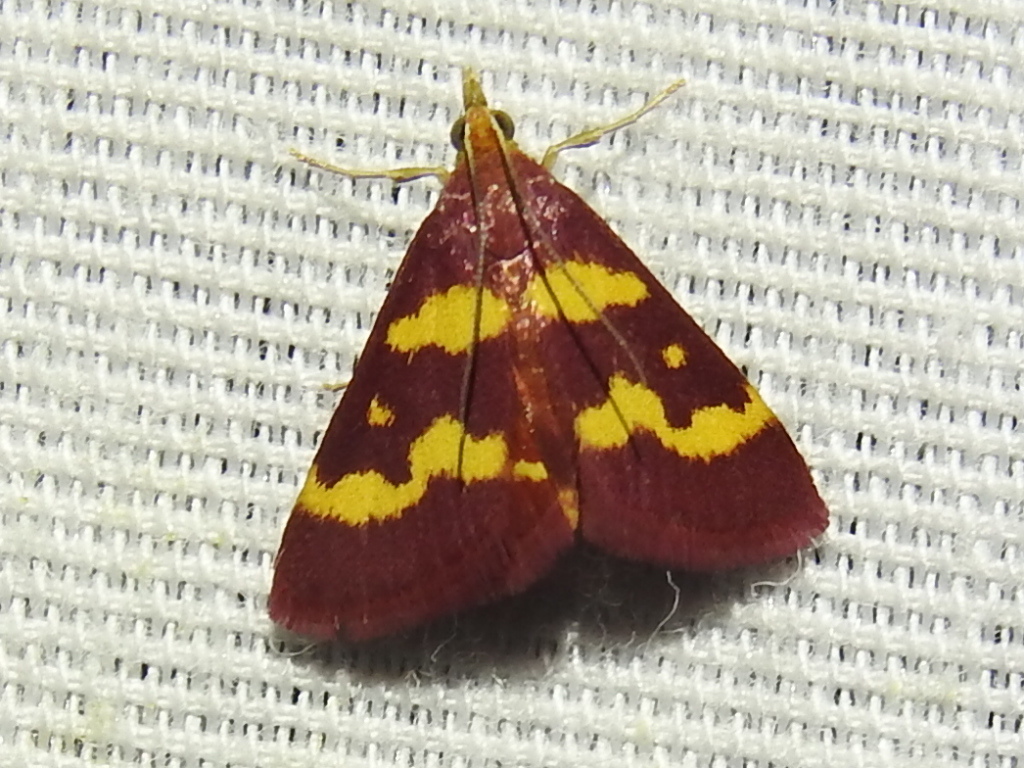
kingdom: Animalia
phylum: Arthropoda
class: Insecta
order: Lepidoptera
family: Crambidae
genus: Pyrausta
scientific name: Pyrausta tyralis
